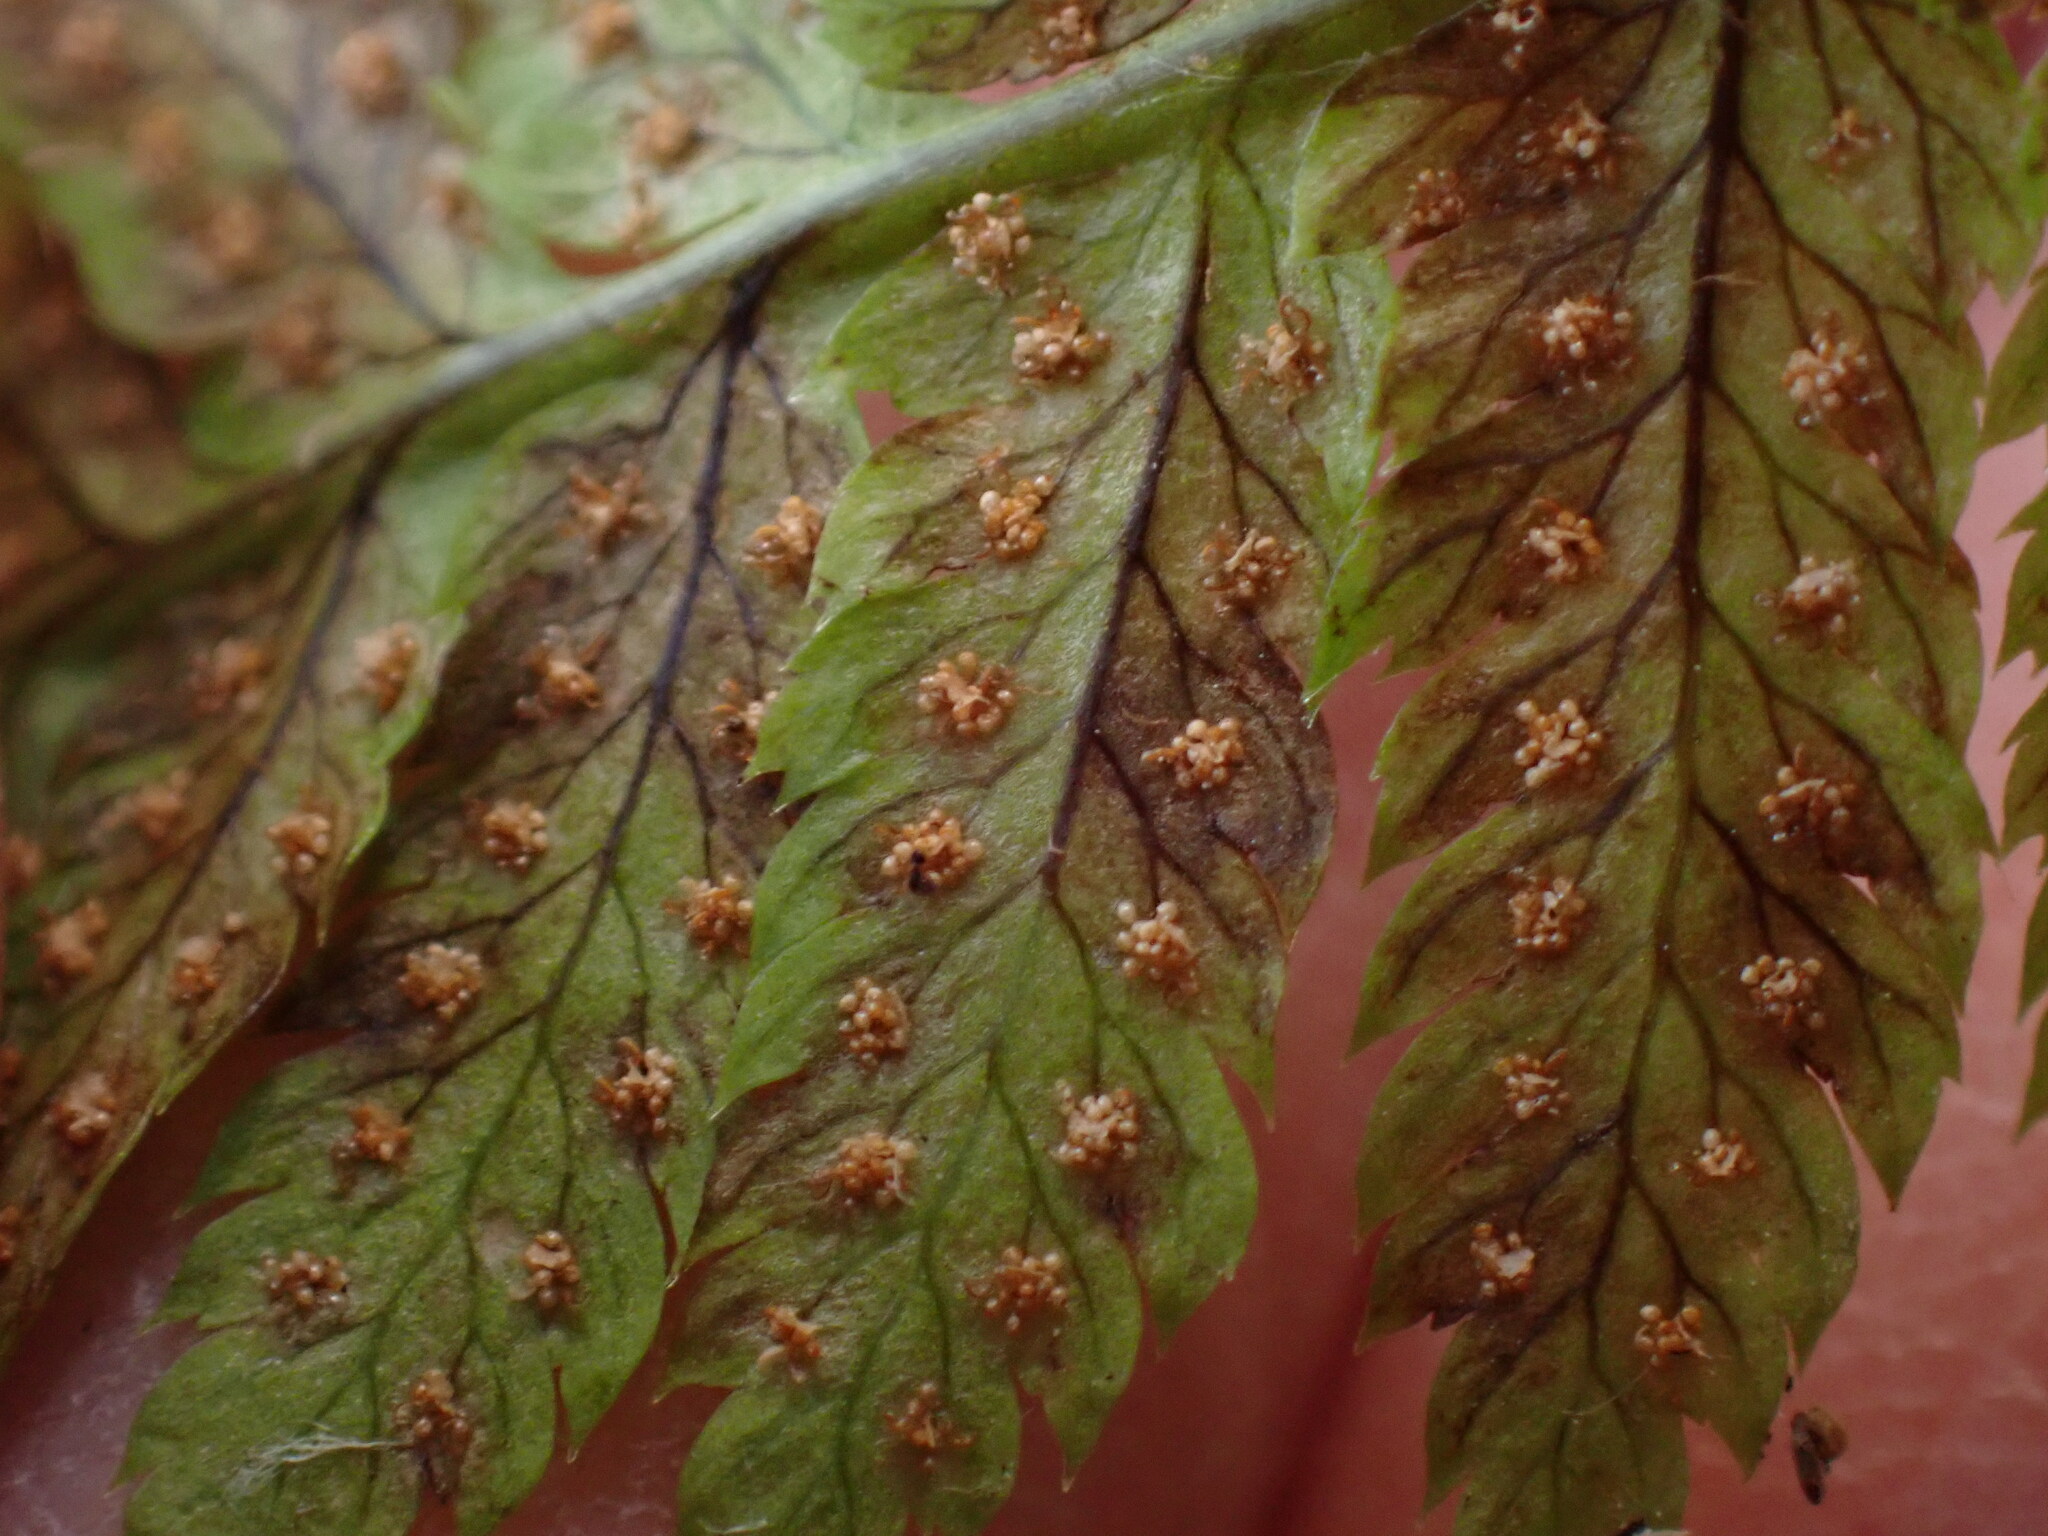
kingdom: Plantae
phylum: Tracheophyta
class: Polypodiopsida
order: Polypodiales
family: Dryopteridaceae
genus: Dryopteris
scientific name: Dryopteris carthusiana
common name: Narrow buckler-fern
